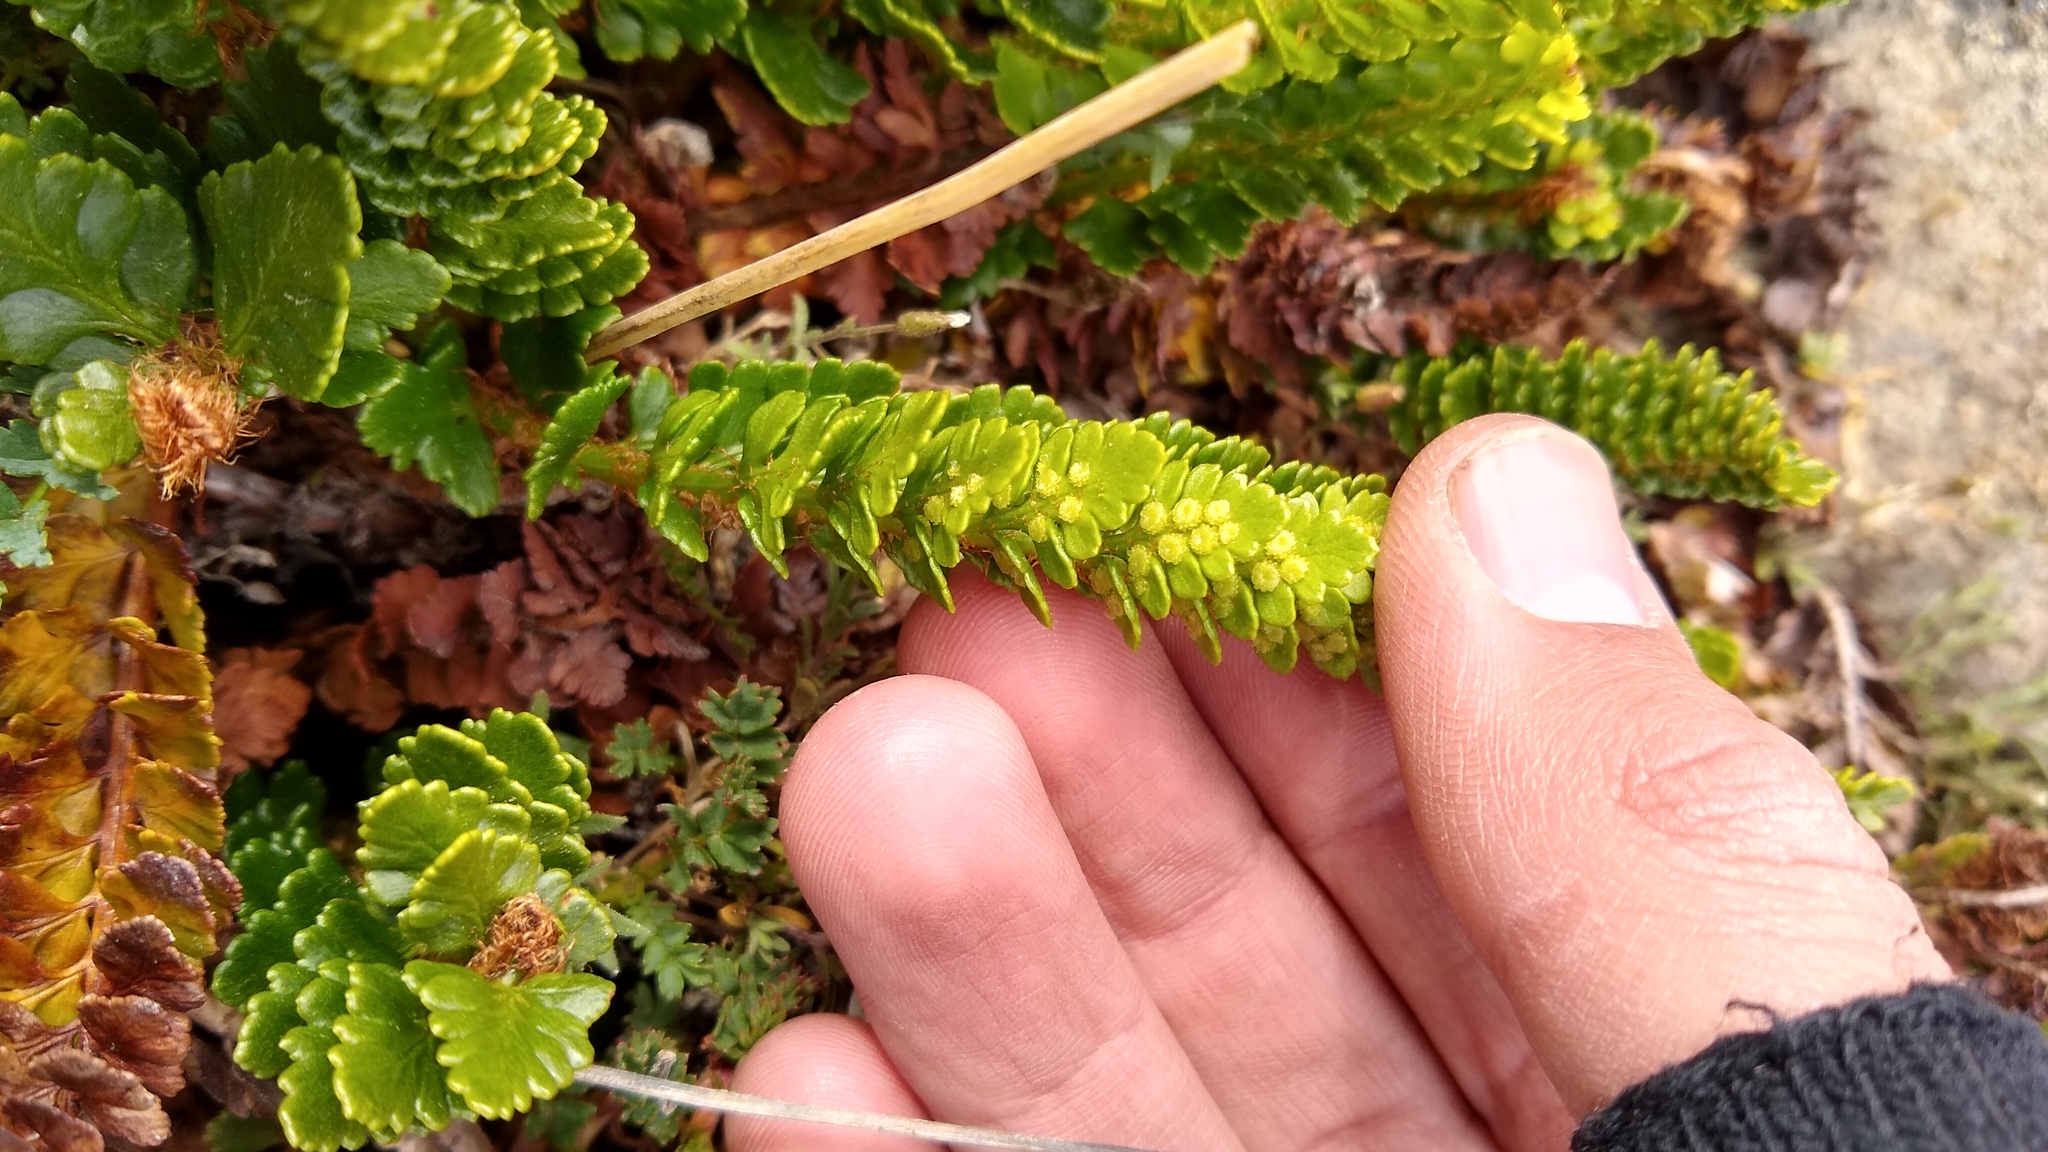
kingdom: Plantae
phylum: Tracheophyta
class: Polypodiopsida
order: Polypodiales
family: Dryopteridaceae
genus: Polystichum
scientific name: Polystichum andinum
